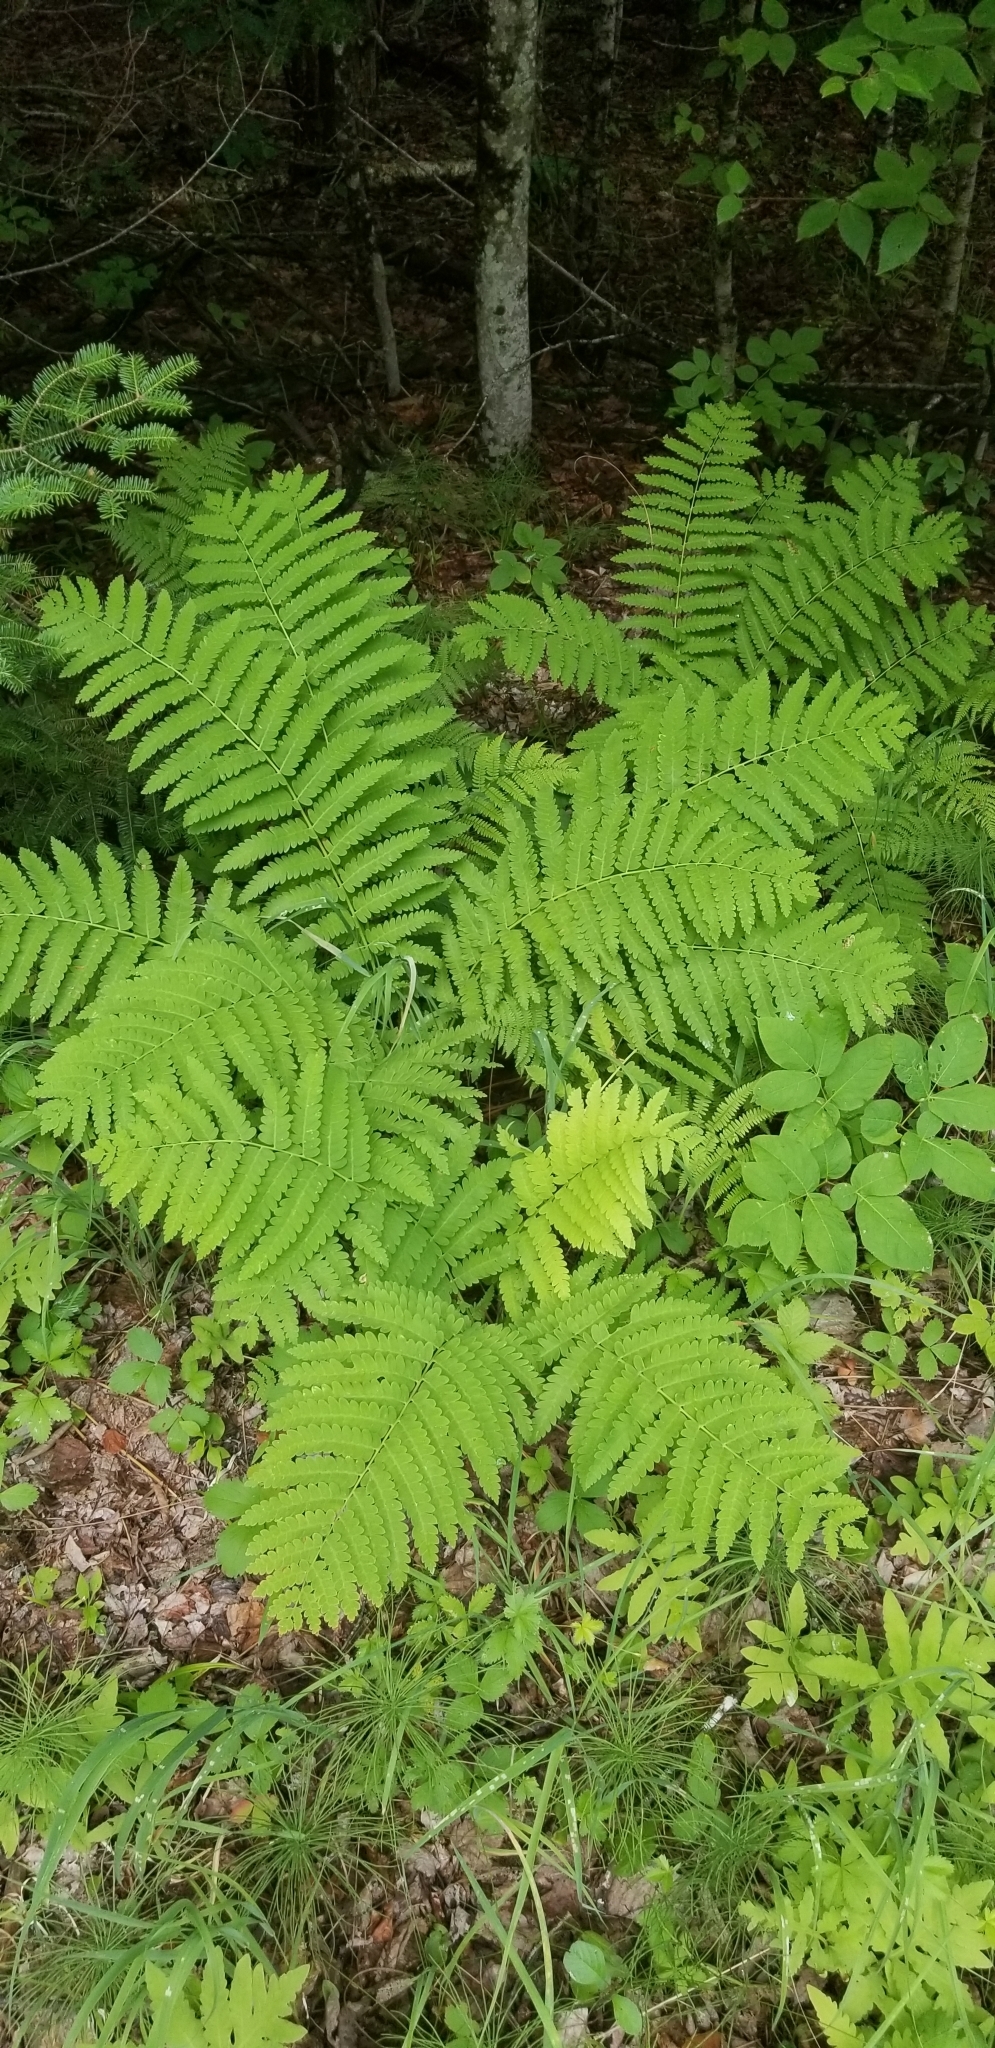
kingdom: Plantae
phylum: Tracheophyta
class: Polypodiopsida
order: Osmundales
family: Osmundaceae
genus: Claytosmunda
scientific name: Claytosmunda claytoniana
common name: Clayton's fern
